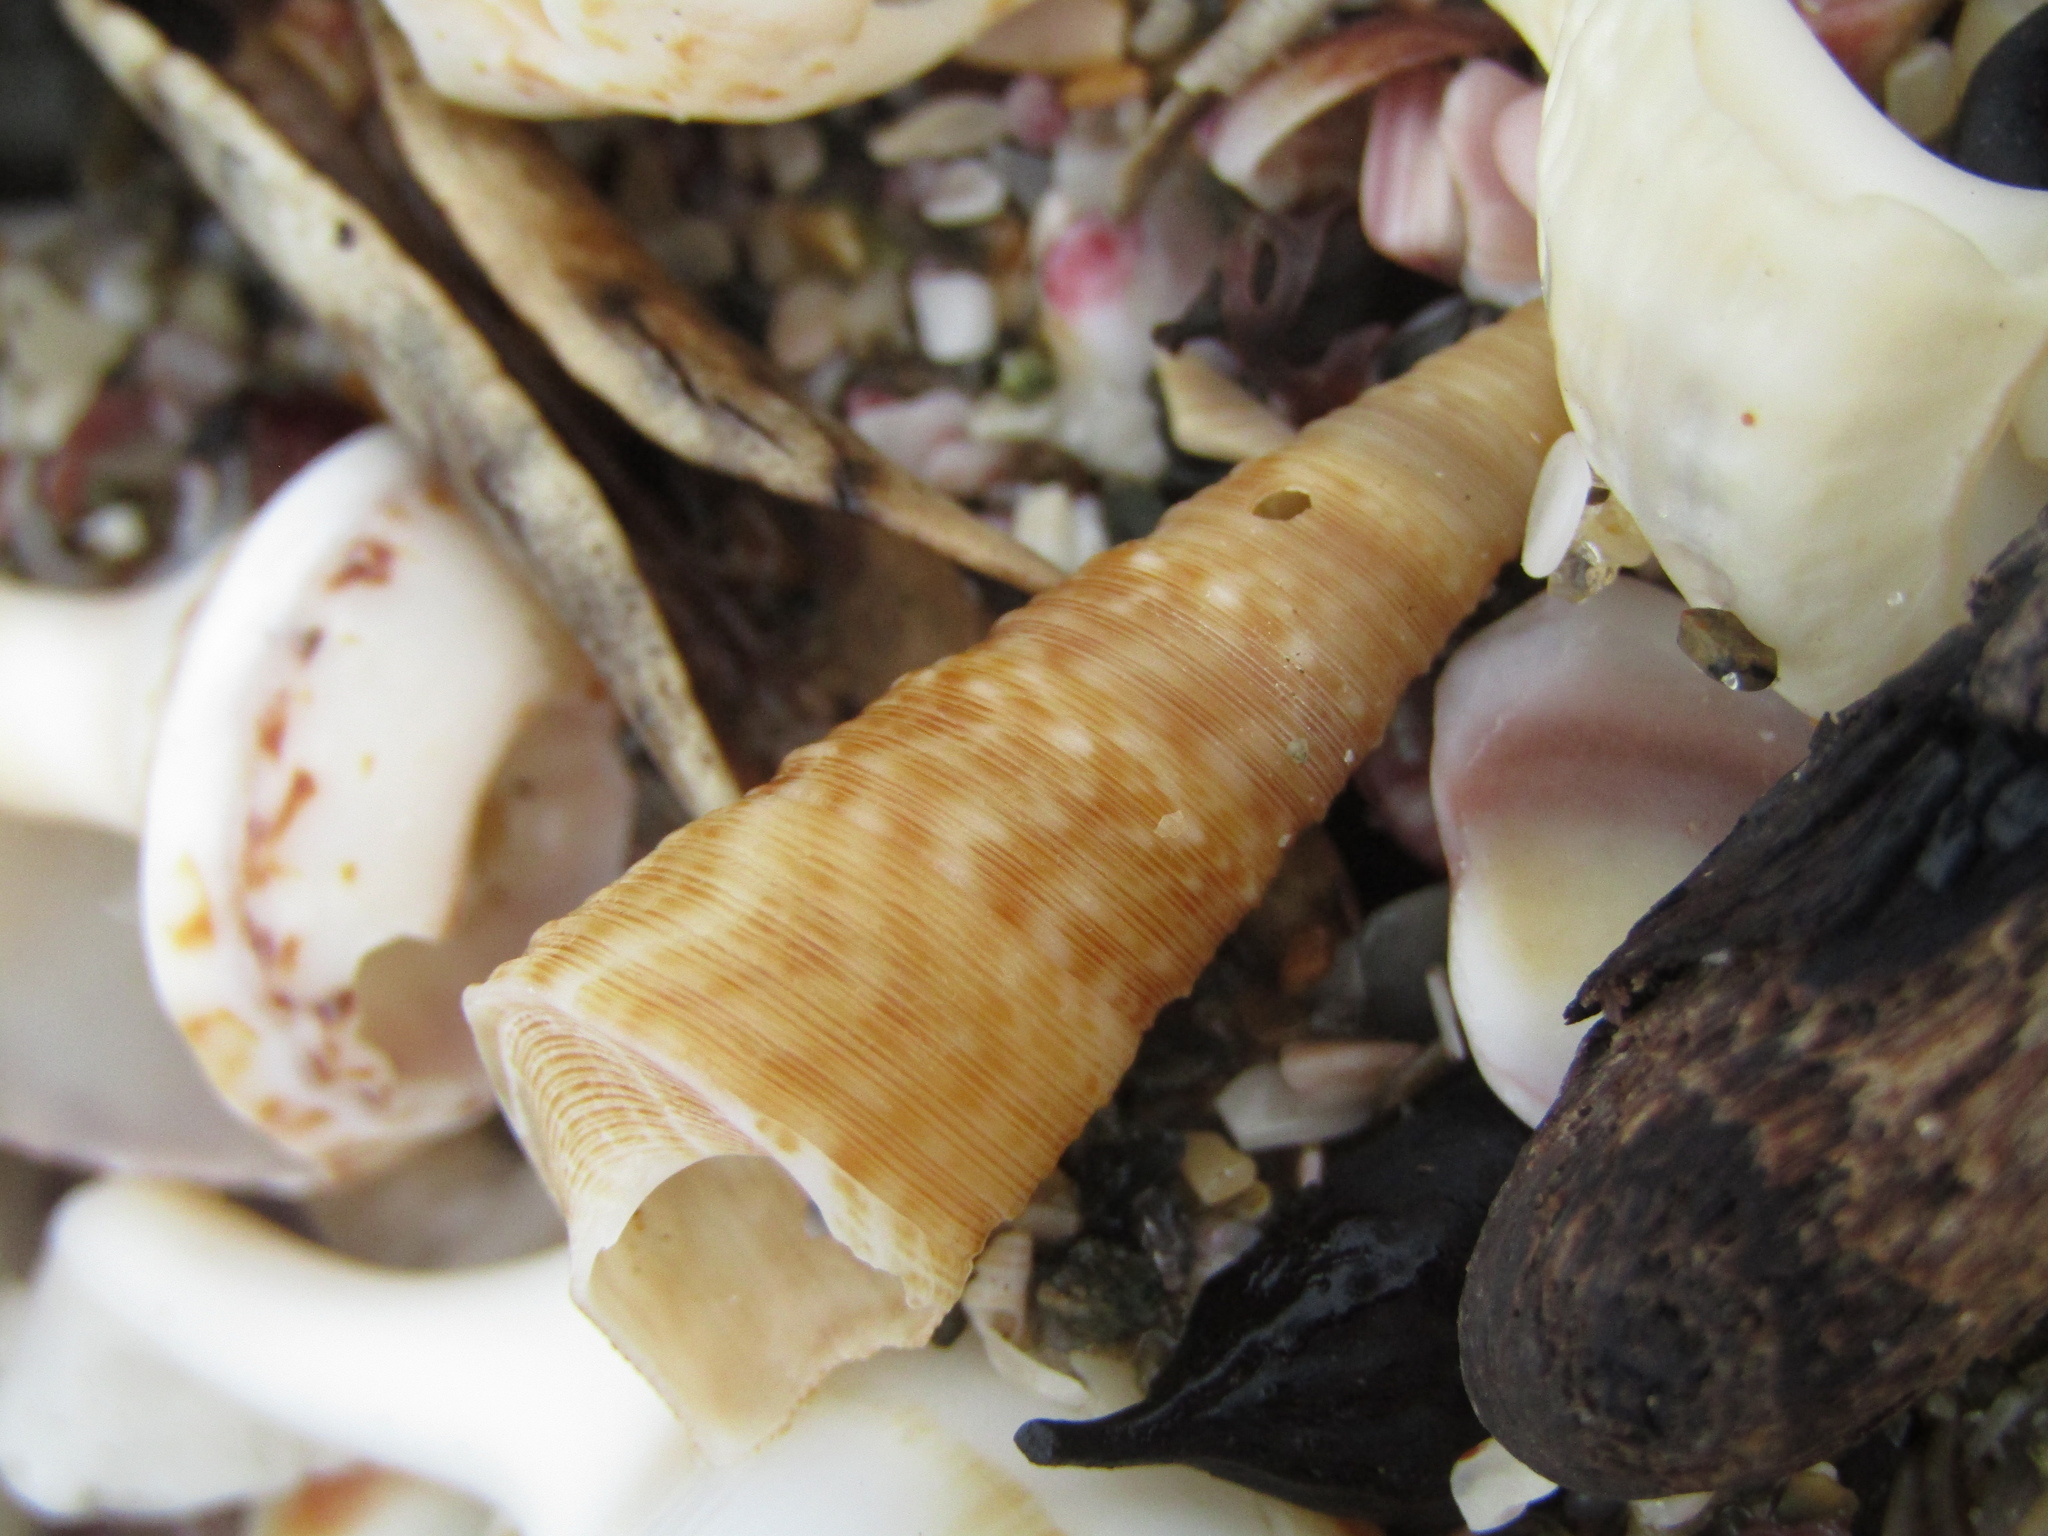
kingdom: Animalia
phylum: Mollusca
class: Gastropoda
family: Turritellidae
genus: Maoricolpus
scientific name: Maoricolpus roseus
